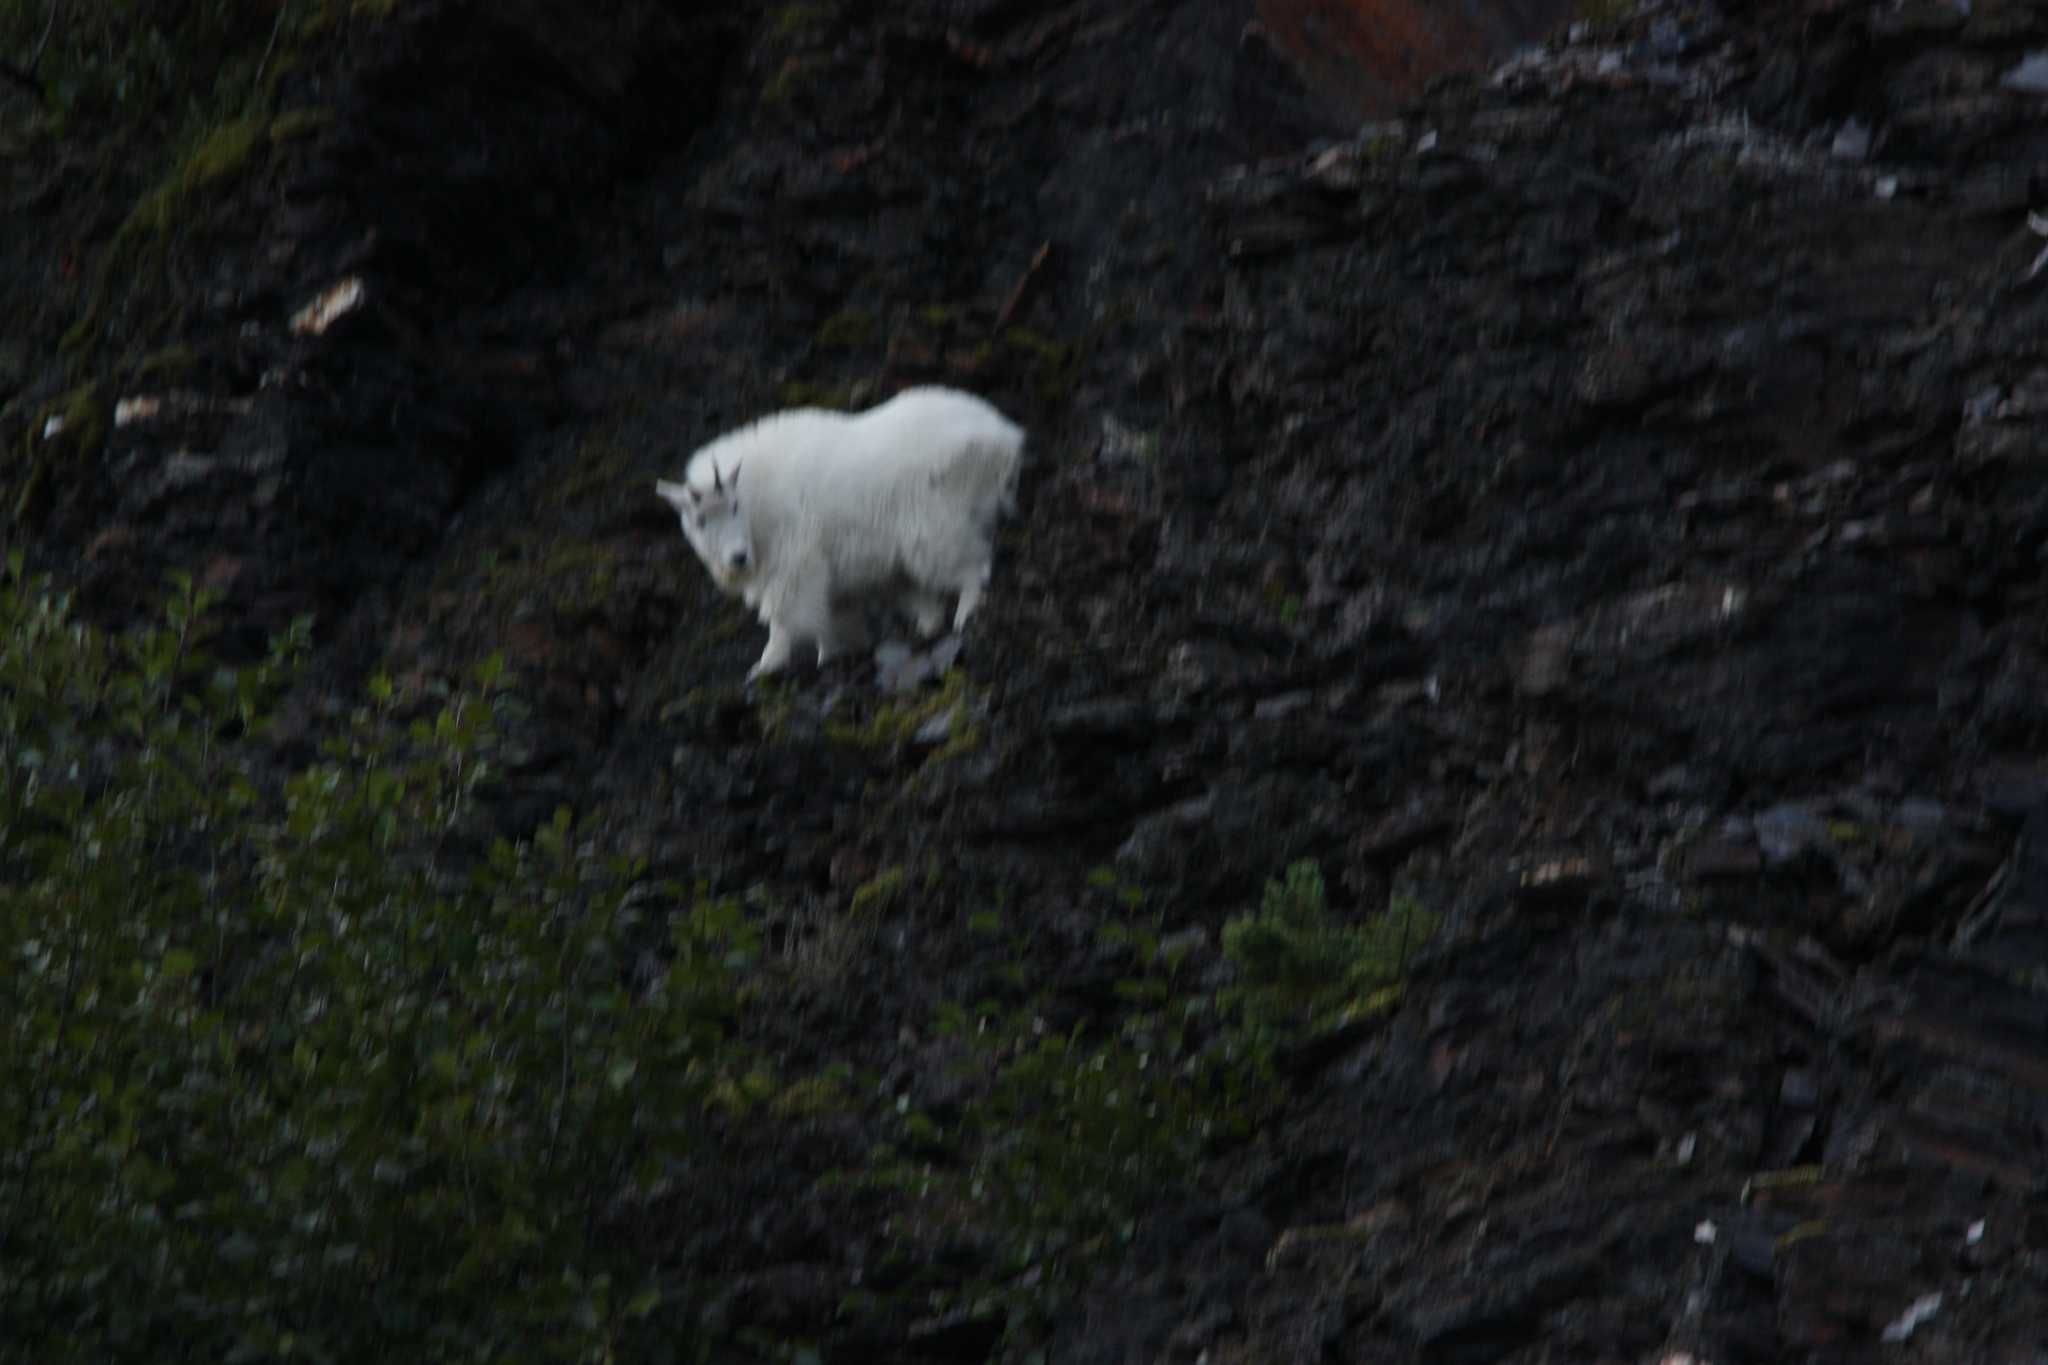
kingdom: Animalia
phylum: Chordata
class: Mammalia
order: Artiodactyla
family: Bovidae
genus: Oreamnos
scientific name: Oreamnos americanus
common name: Mountain goat
